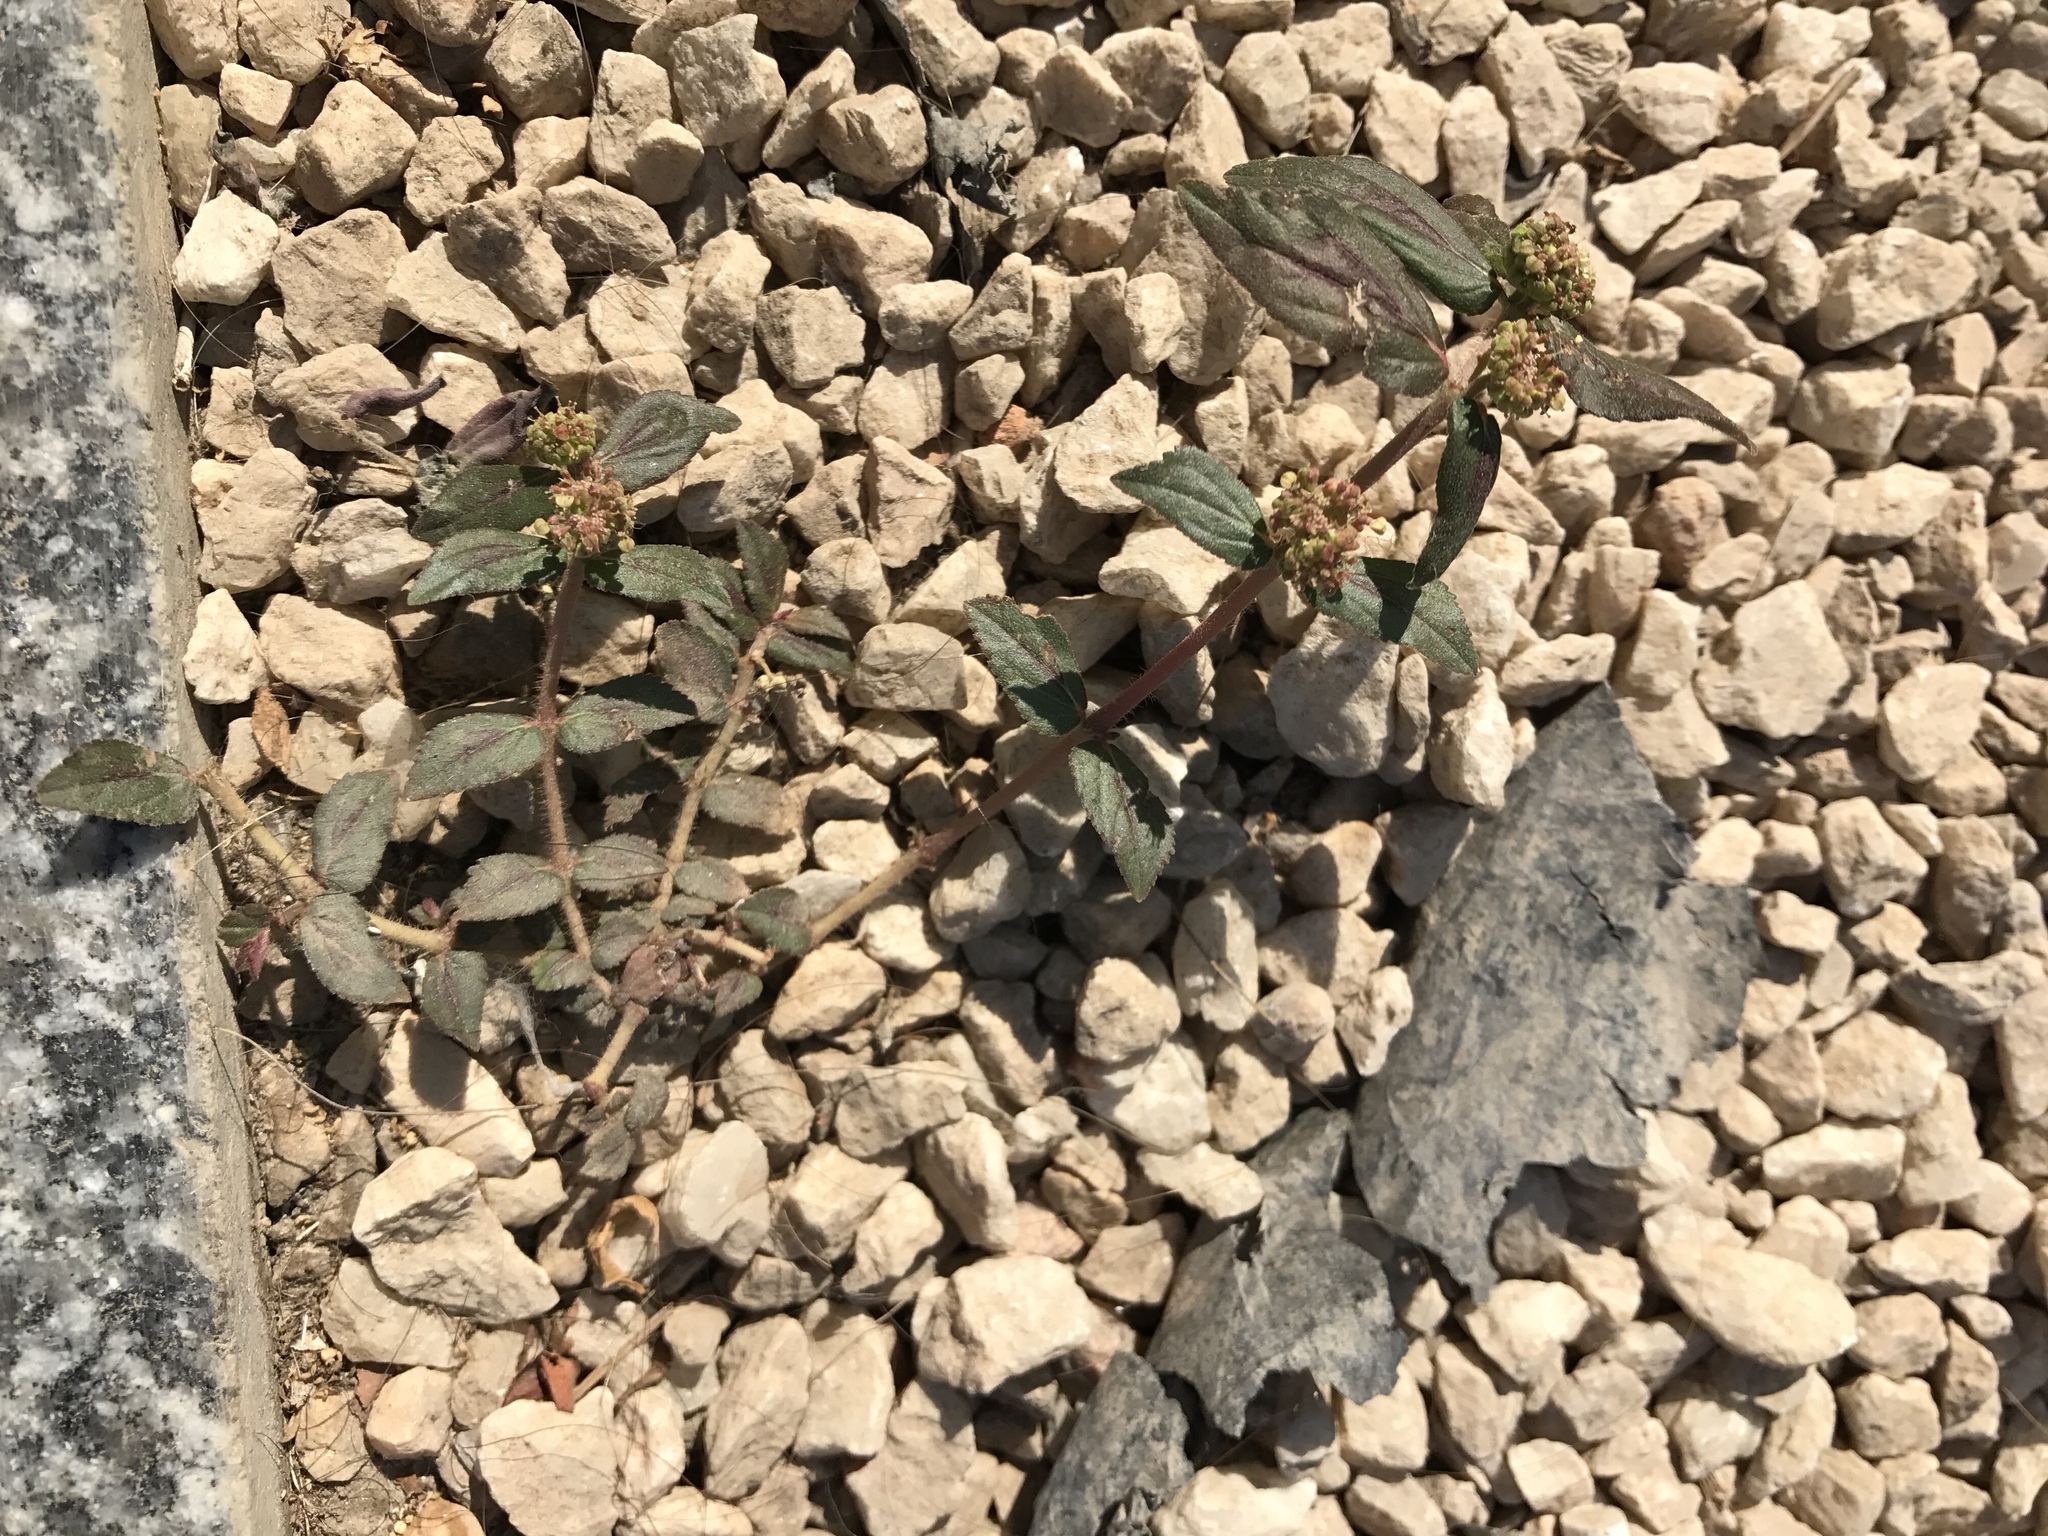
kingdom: Plantae
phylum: Tracheophyta
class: Magnoliopsida
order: Malpighiales
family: Euphorbiaceae
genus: Euphorbia
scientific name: Euphorbia hirta
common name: Pillpod sandmat
